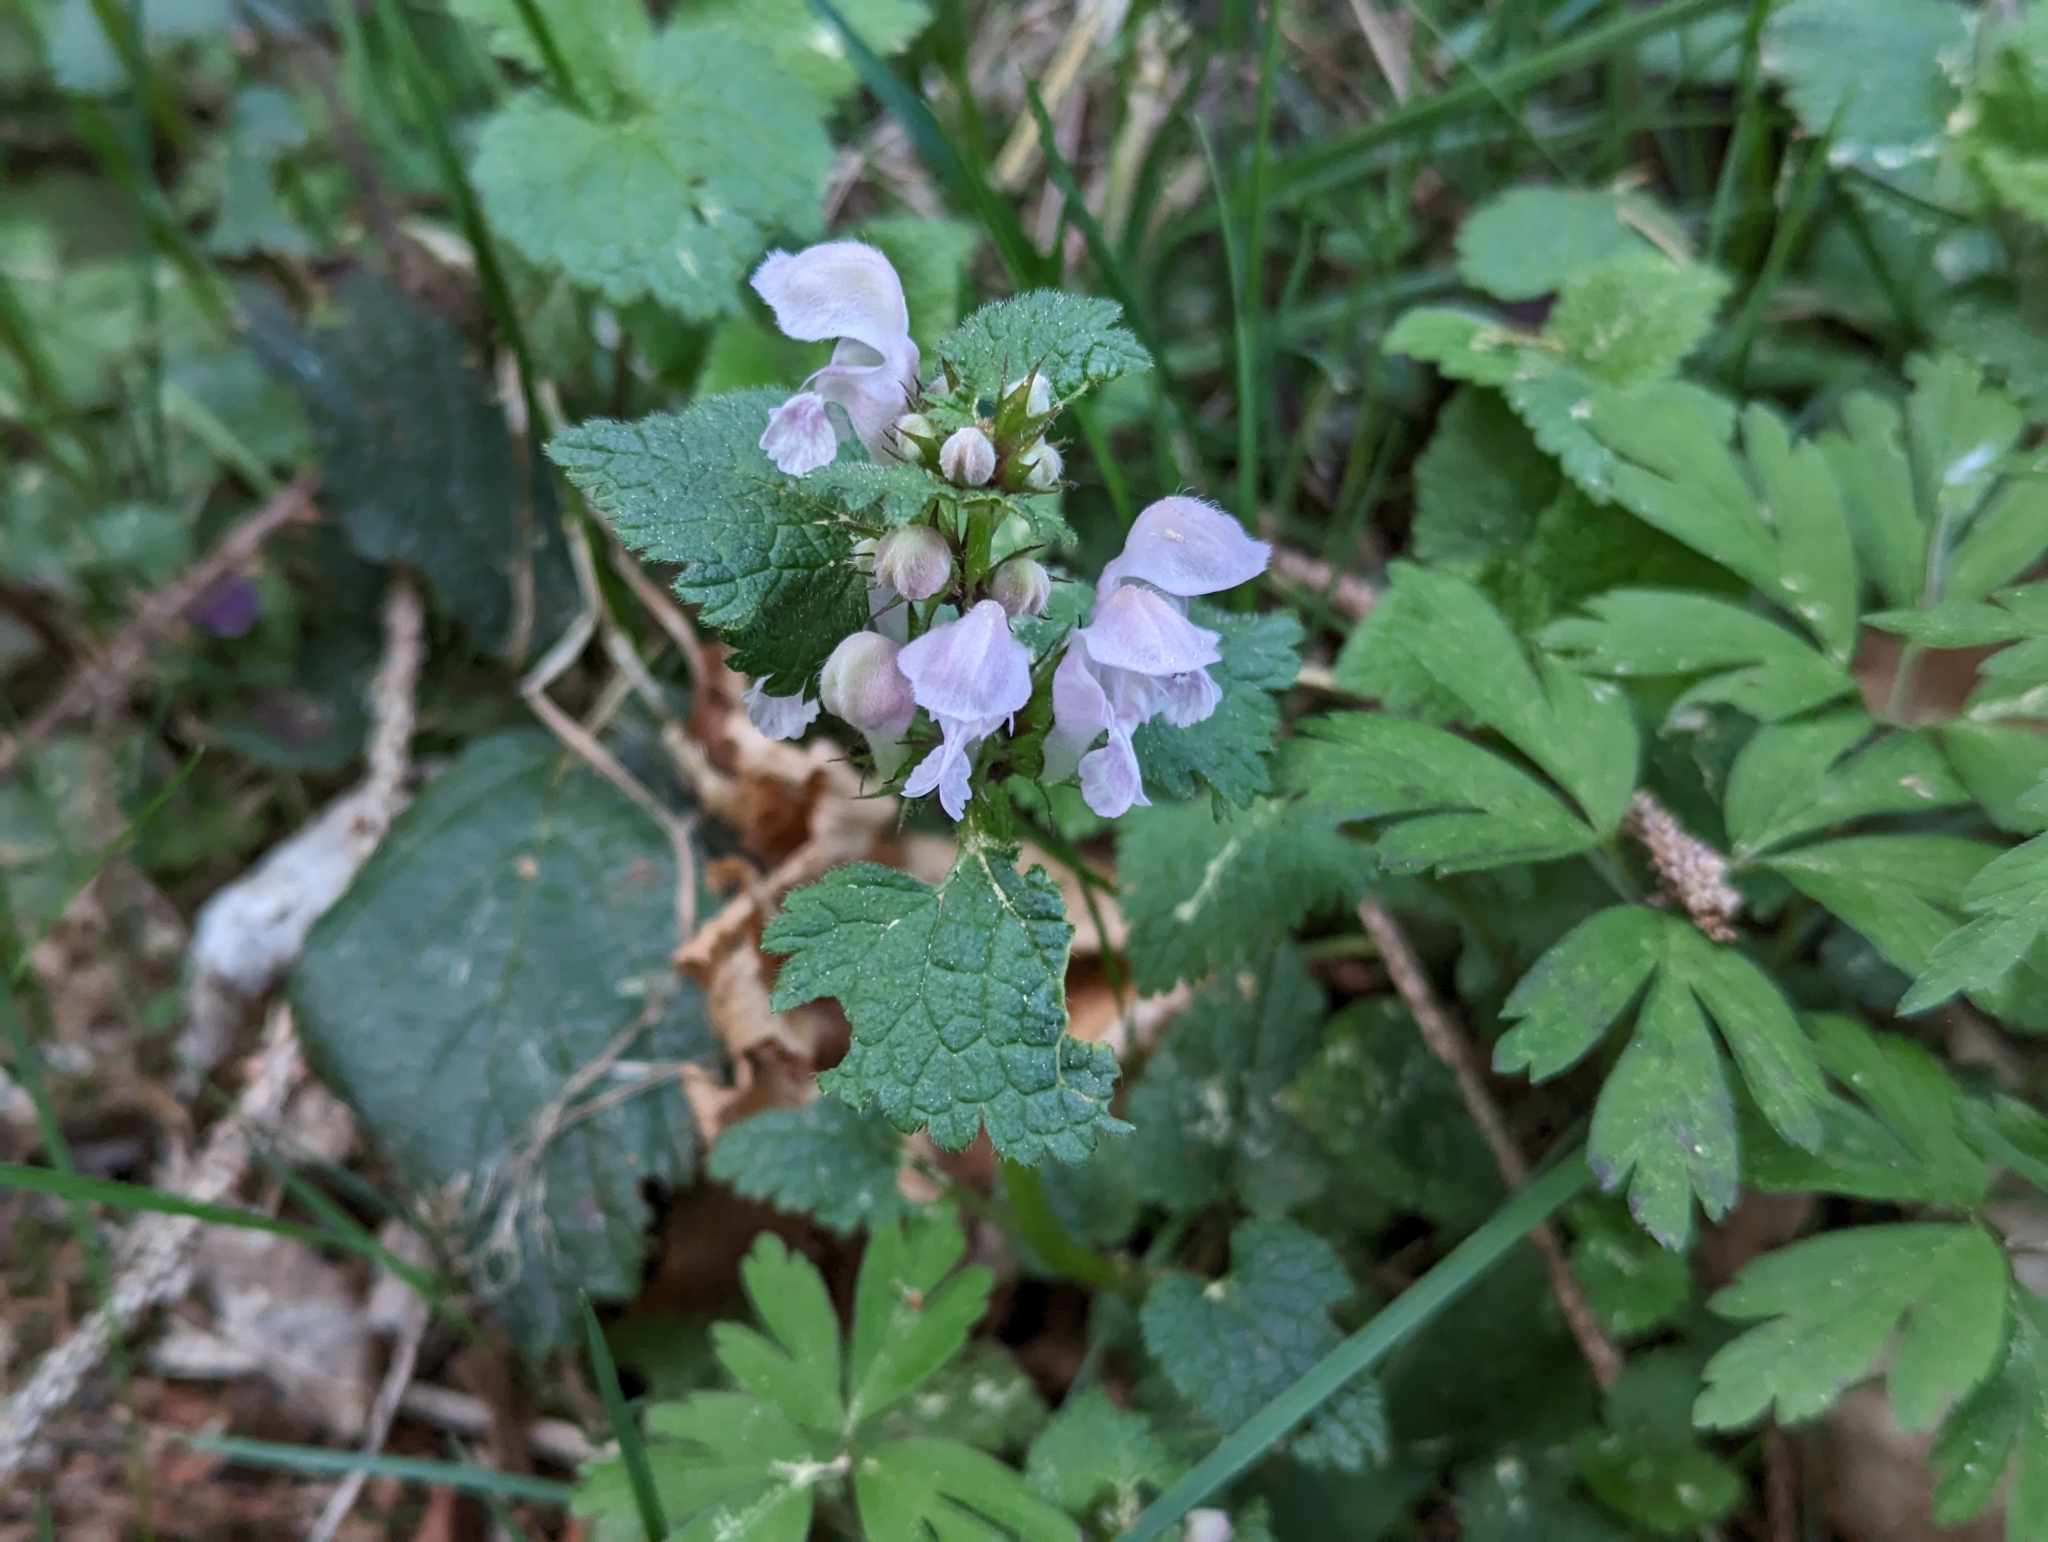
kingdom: Plantae
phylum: Tracheophyta
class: Magnoliopsida
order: Lamiales
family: Lamiaceae
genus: Lamium
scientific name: Lamium maculatum
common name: Spotted dead-nettle
